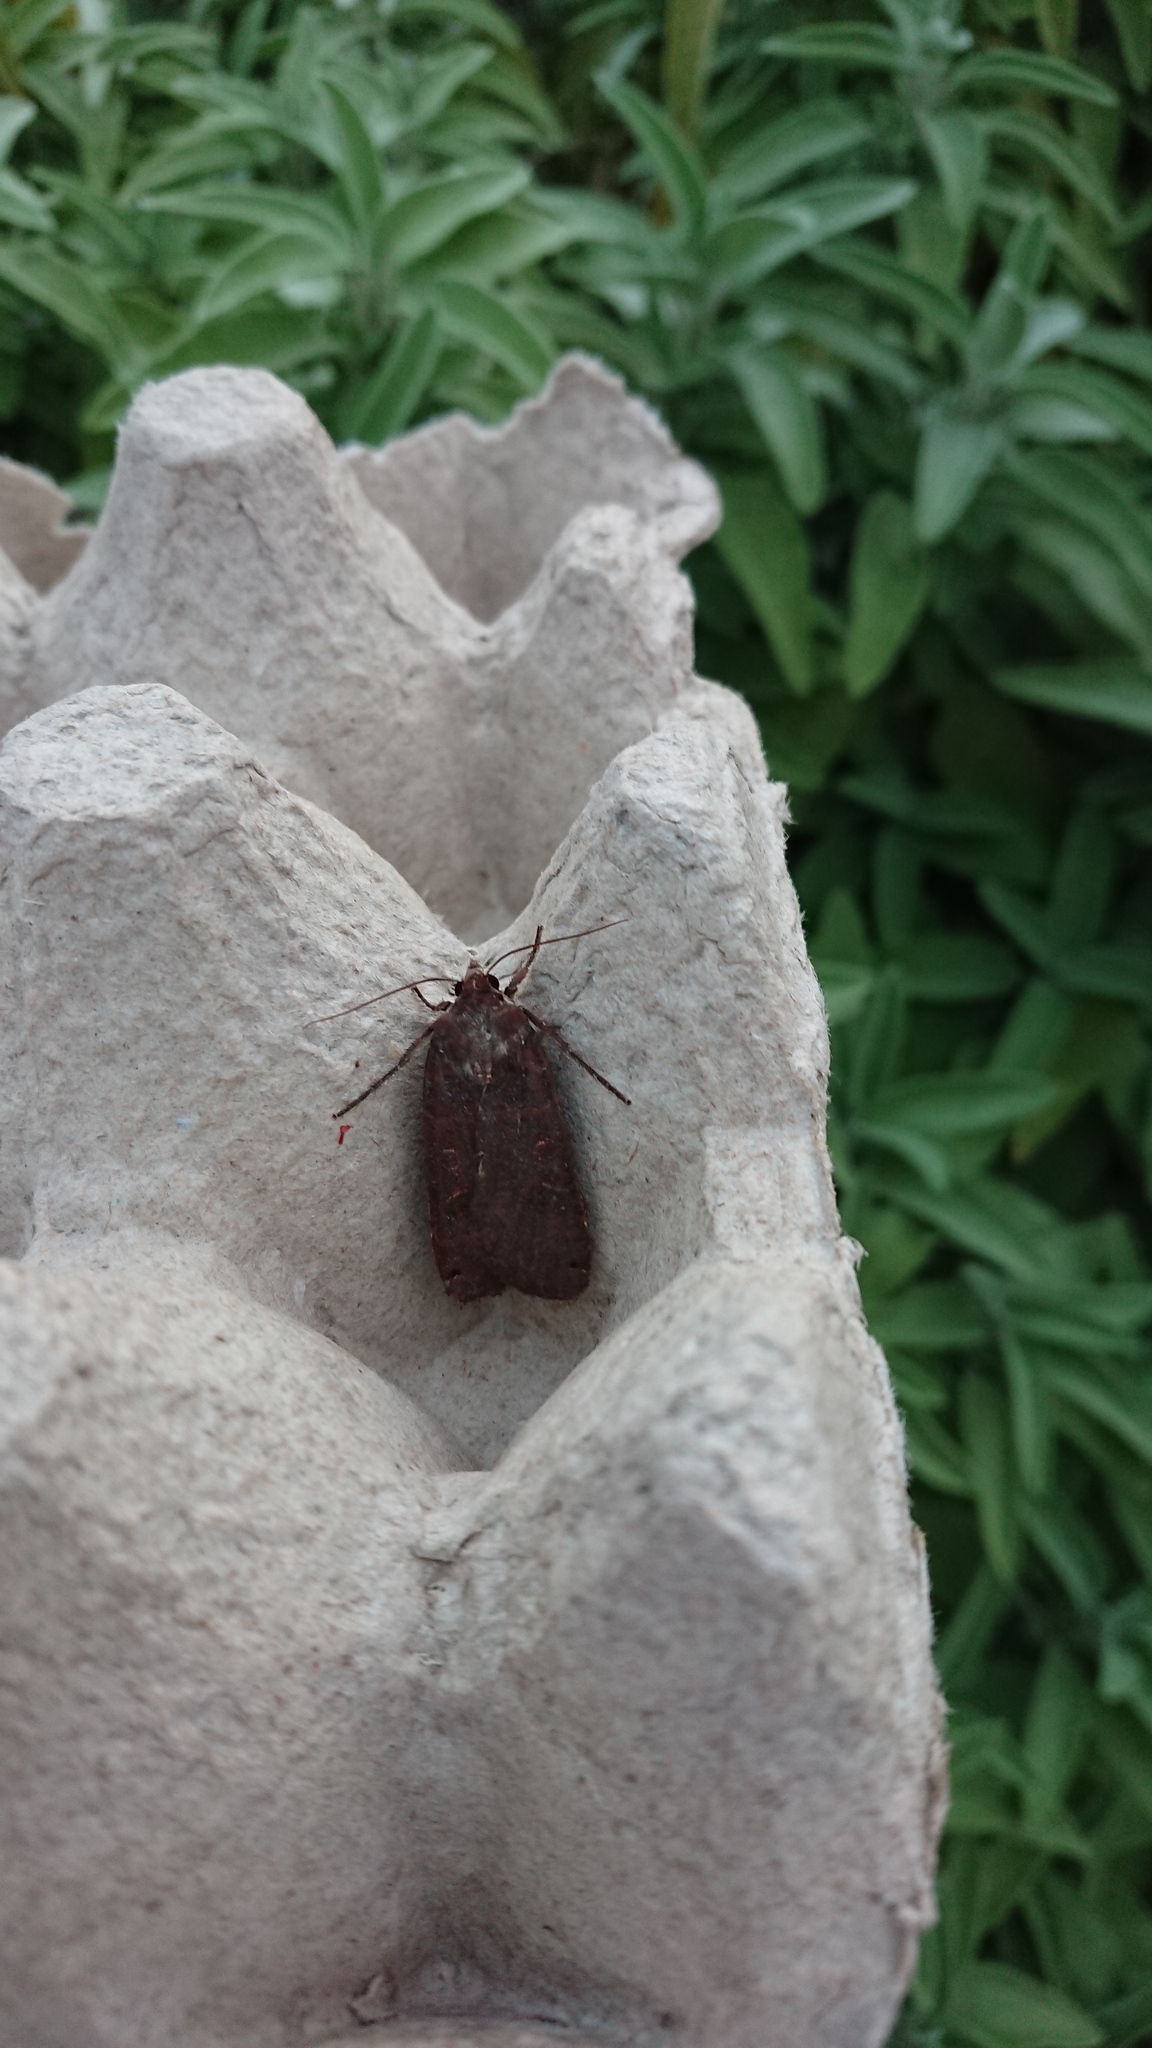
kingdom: Animalia
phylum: Arthropoda
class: Insecta
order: Lepidoptera
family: Noctuidae
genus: Noctua
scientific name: Noctua pronuba
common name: Large yellow underwing
